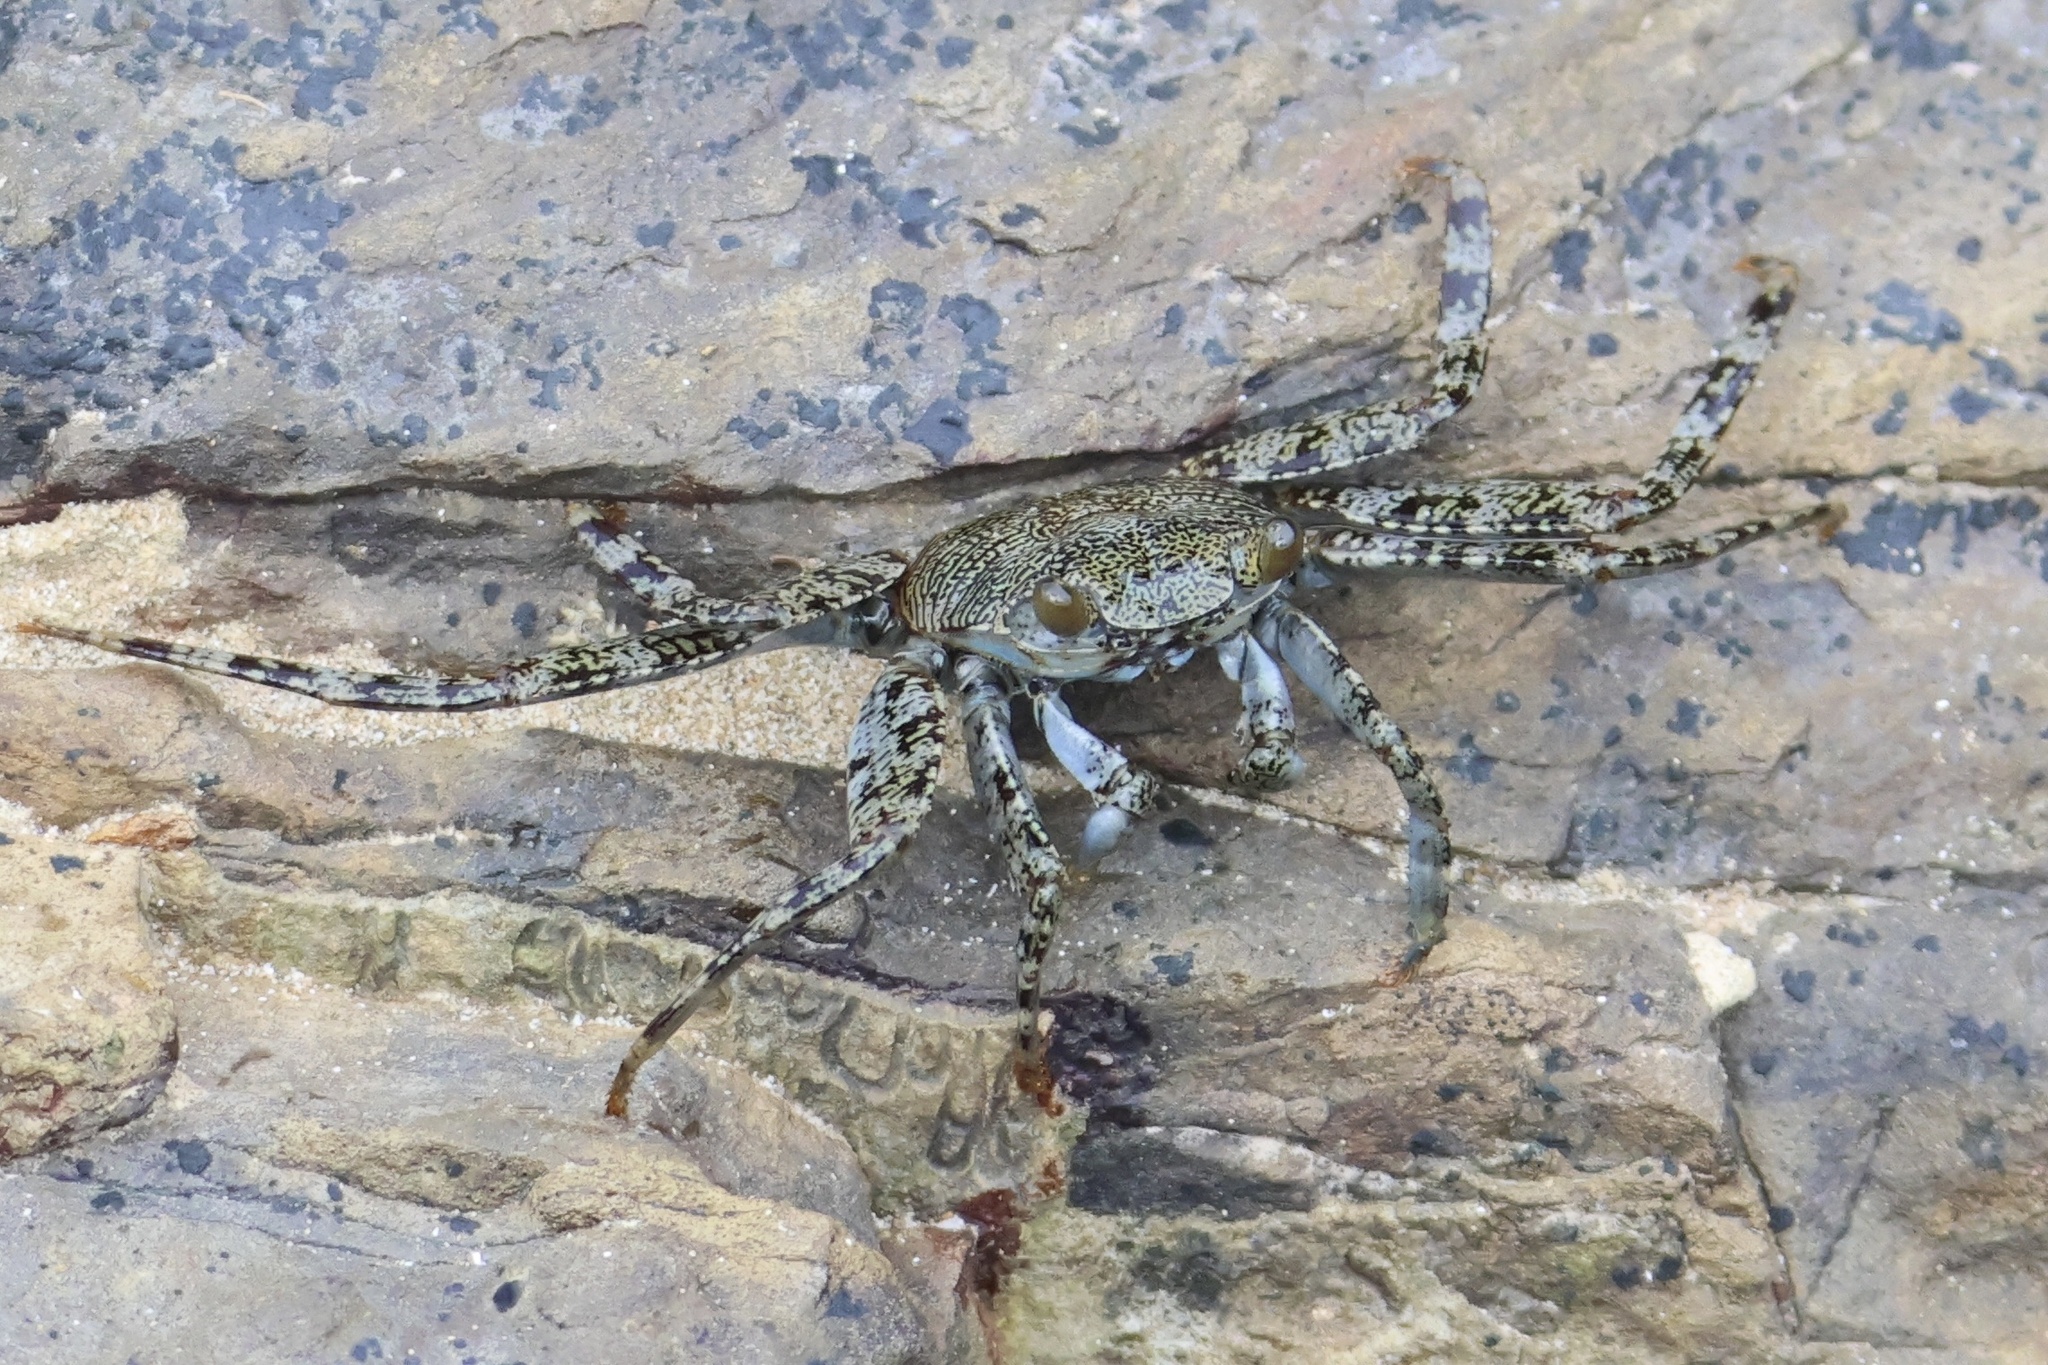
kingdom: Animalia
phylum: Arthropoda
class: Malacostraca
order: Decapoda
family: Grapsidae
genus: Grapsus
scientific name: Grapsus grapsus
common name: Sally lightfoot
